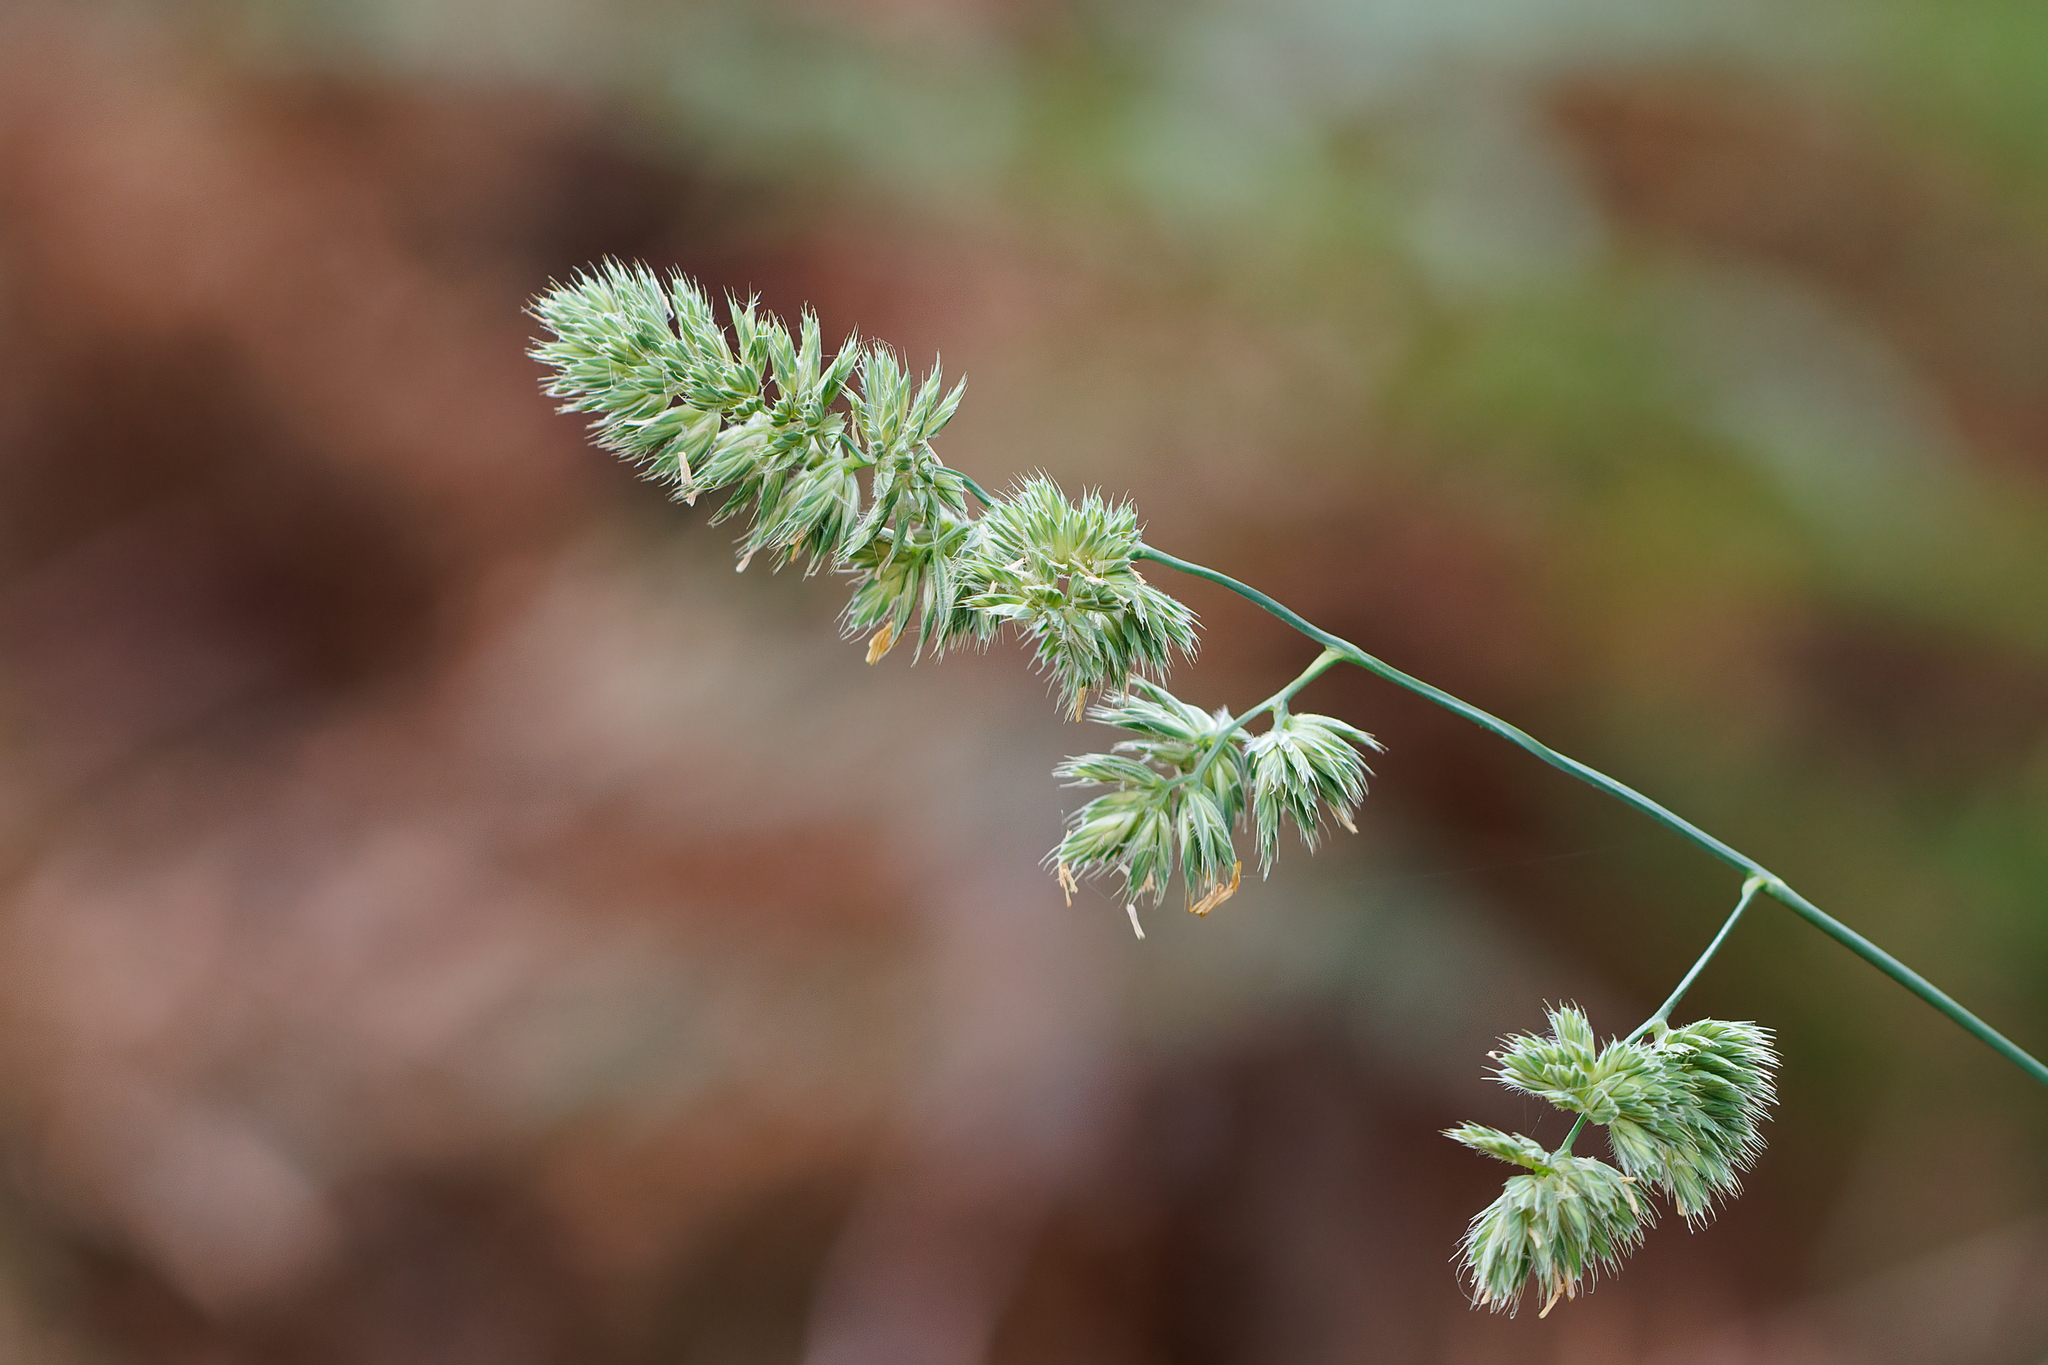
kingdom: Plantae
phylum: Tracheophyta
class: Liliopsida
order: Poales
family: Poaceae
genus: Dactylis
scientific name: Dactylis glomerata
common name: Orchardgrass
